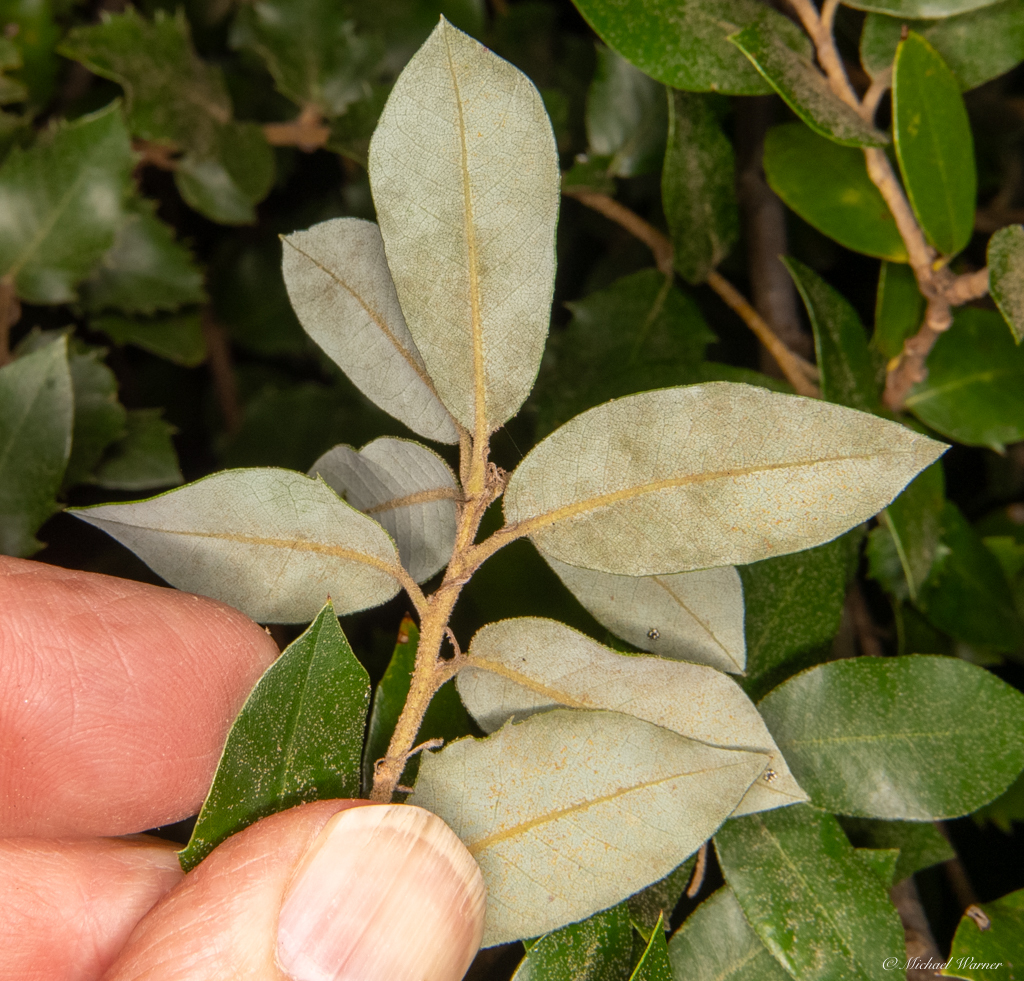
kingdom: Plantae
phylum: Tracheophyta
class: Magnoliopsida
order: Fagales
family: Fagaceae
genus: Quercus
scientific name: Quercus chrysolepis
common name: Canyon live oak
